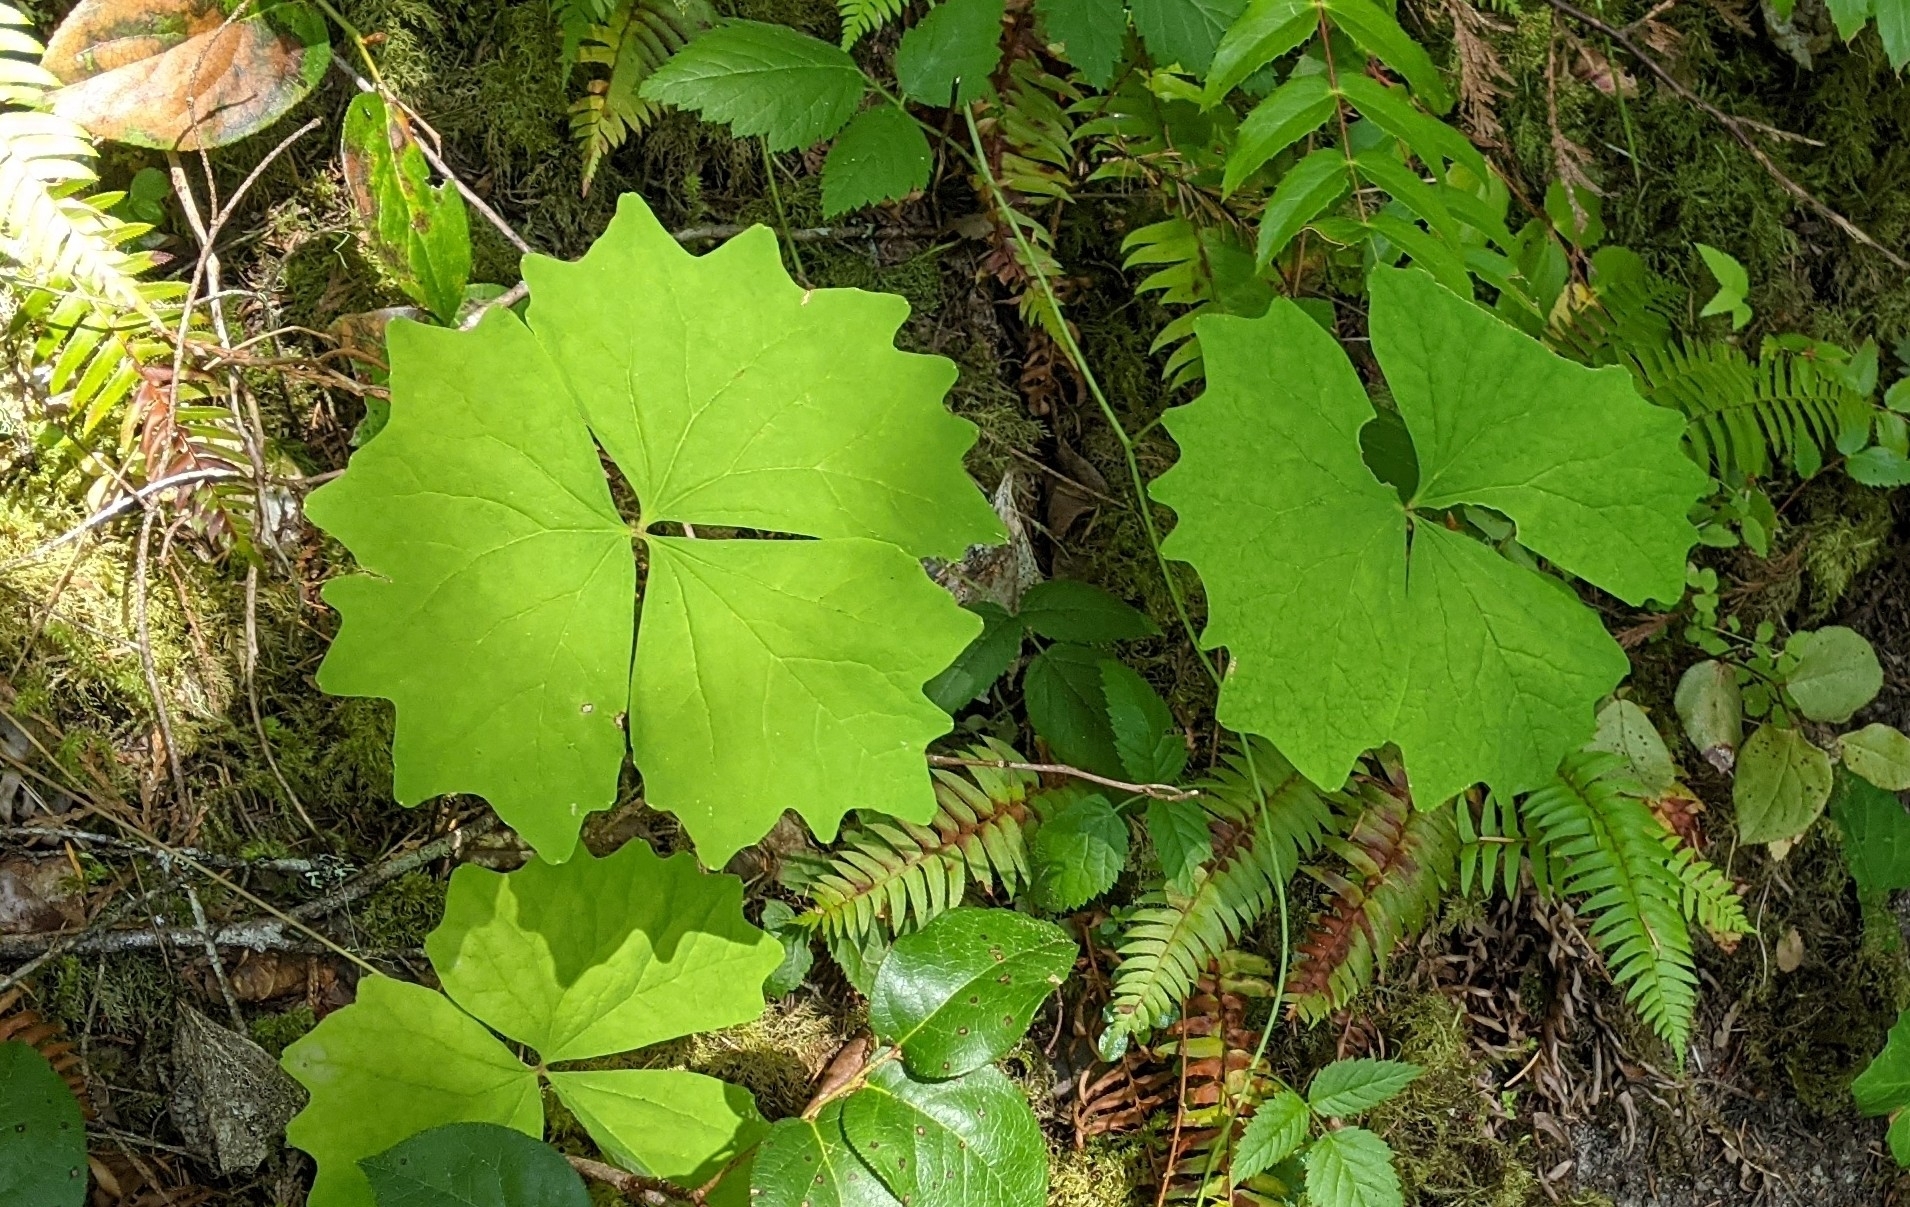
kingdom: Plantae
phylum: Tracheophyta
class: Magnoliopsida
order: Ranunculales
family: Berberidaceae
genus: Achlys
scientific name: Achlys californica
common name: California deer-foot
